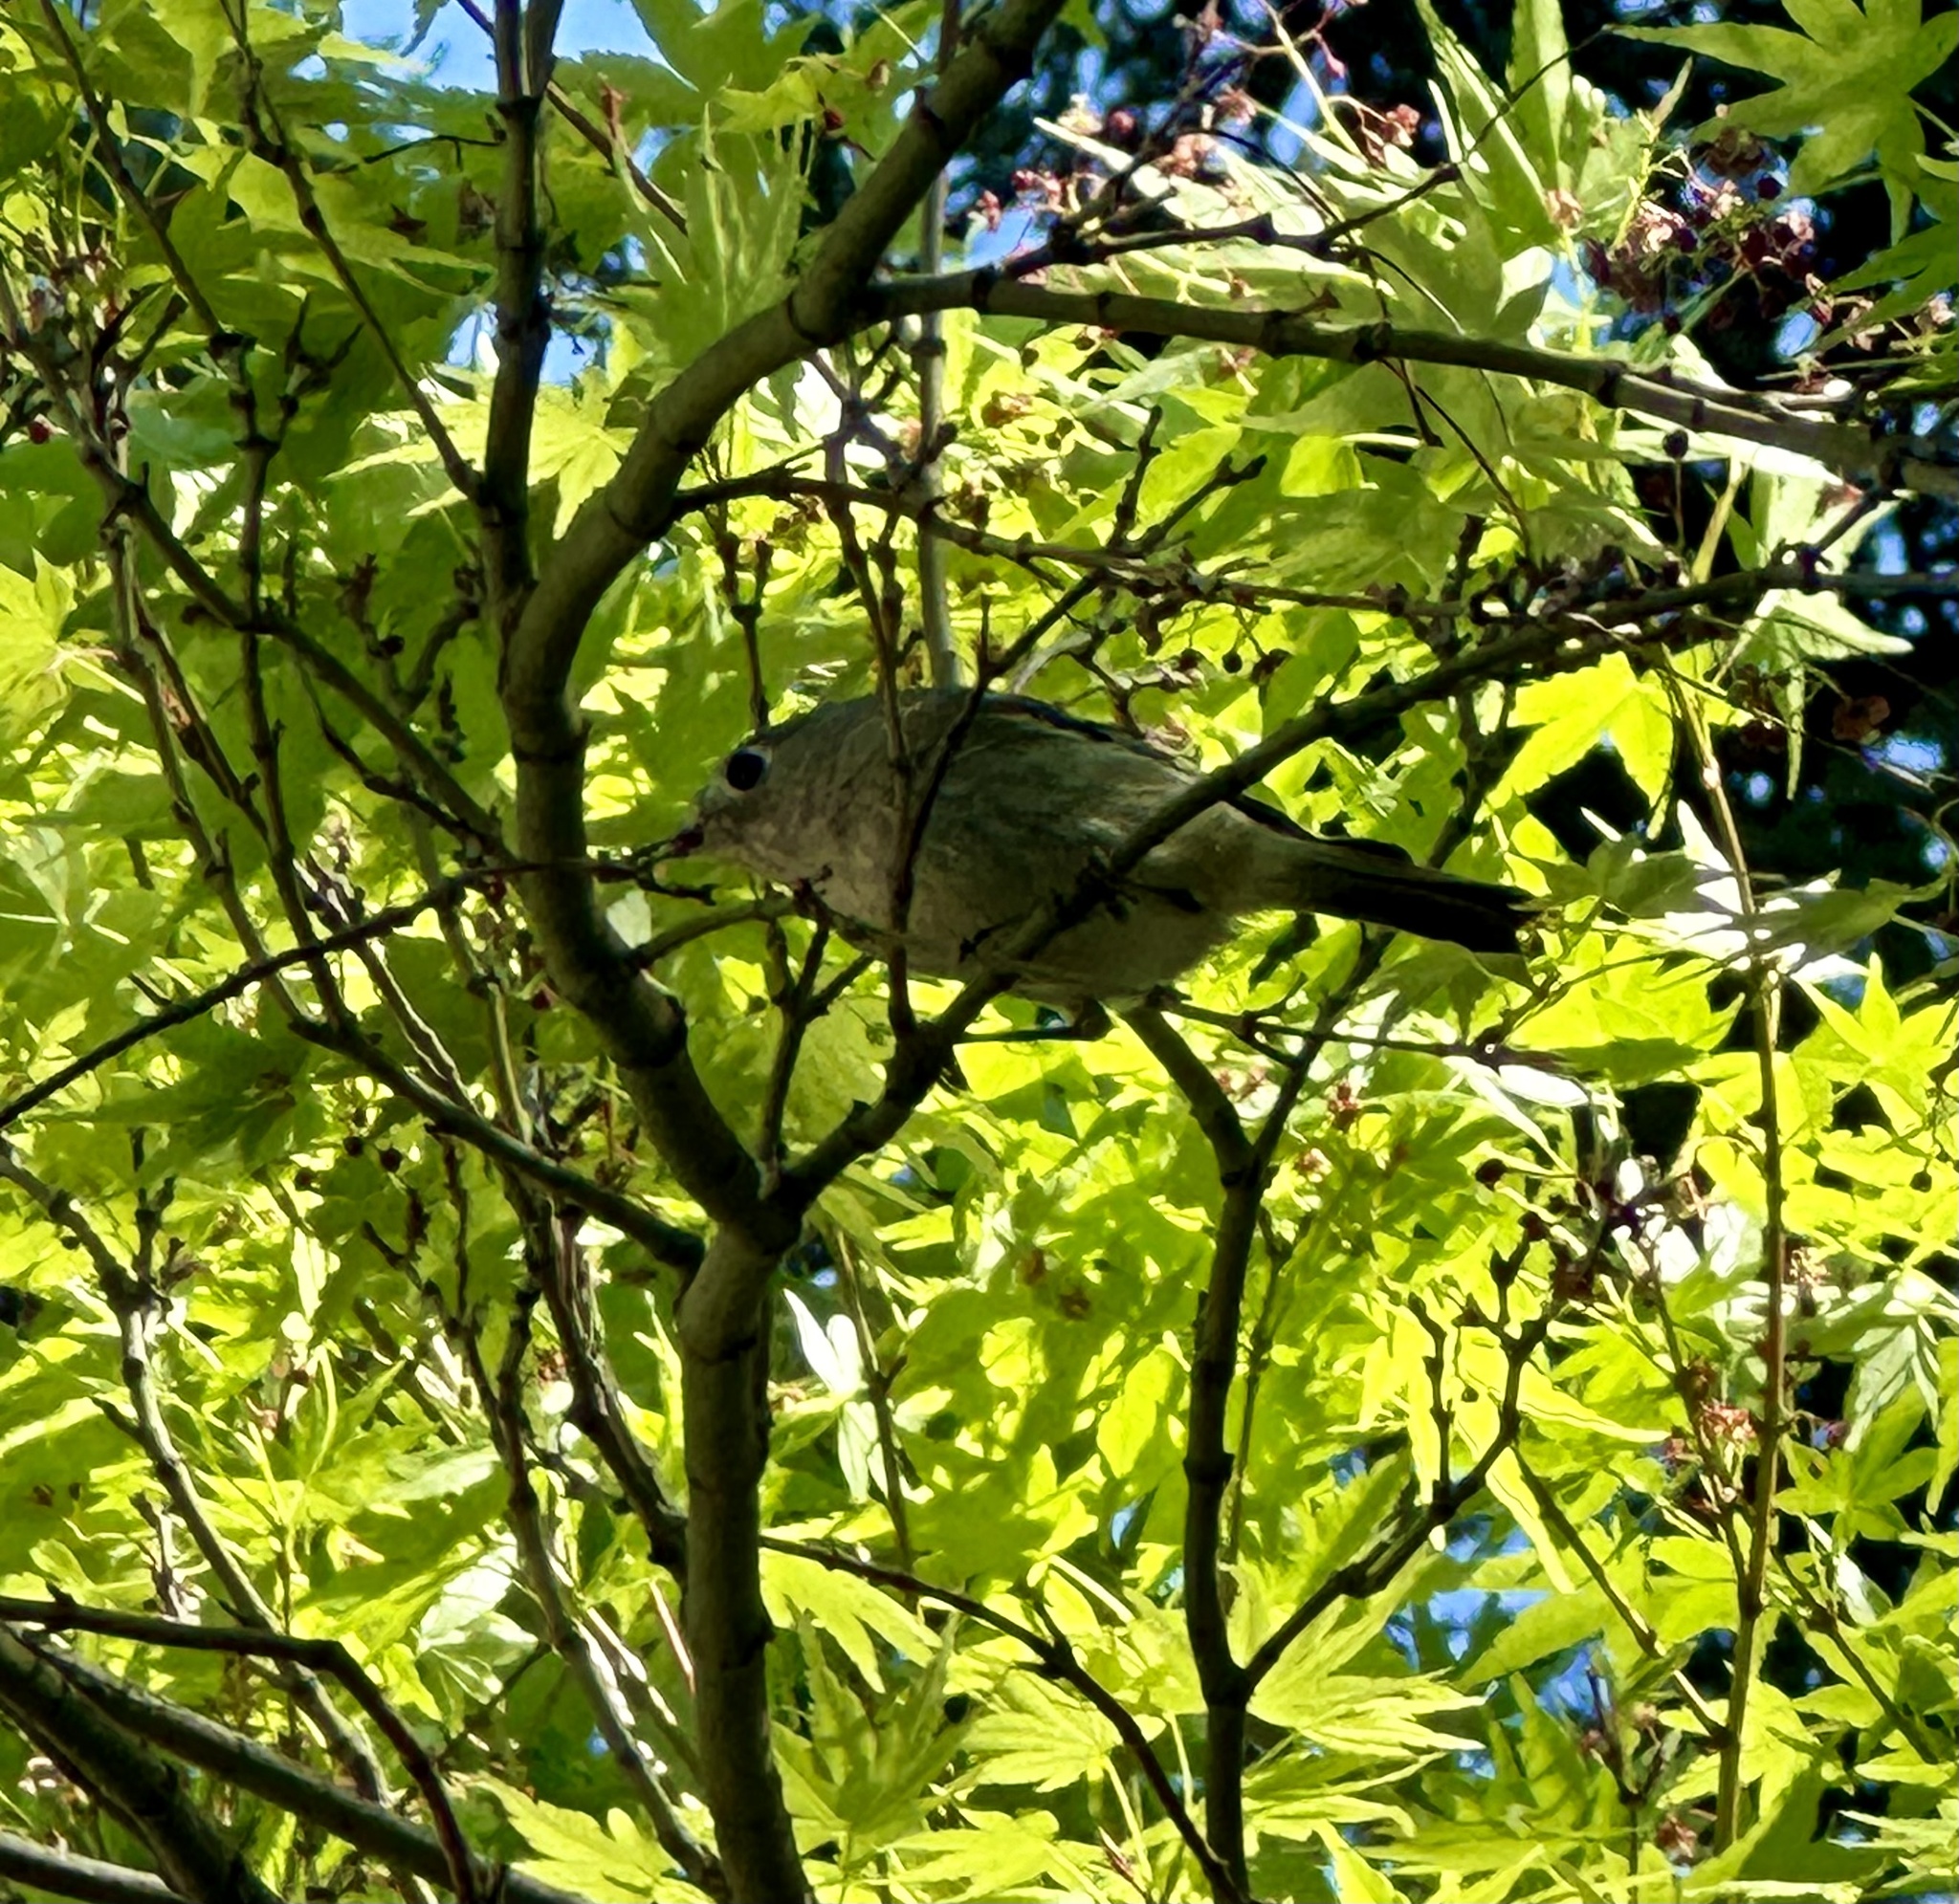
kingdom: Animalia
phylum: Chordata
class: Aves
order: Passeriformes
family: Regulidae
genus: Regulus
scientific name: Regulus calendula
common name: Ruby-crowned kinglet
